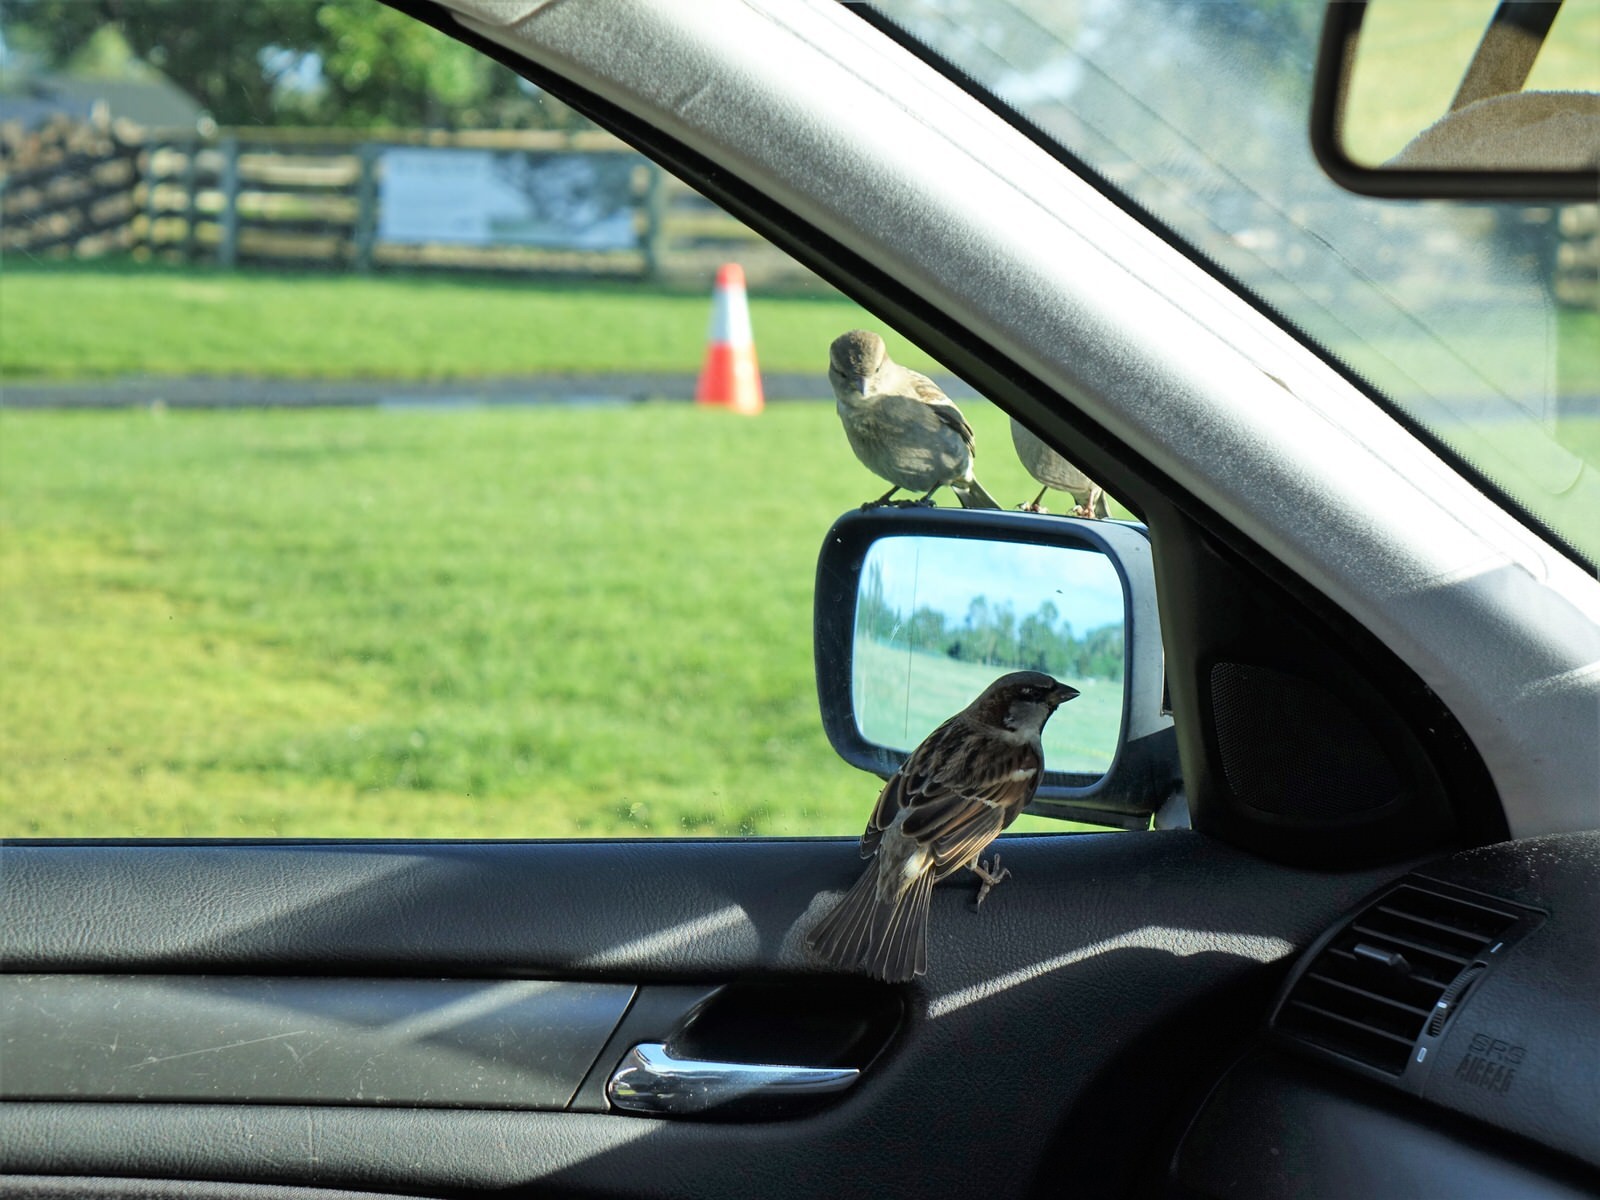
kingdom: Animalia
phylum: Chordata
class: Aves
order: Passeriformes
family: Passeridae
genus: Passer
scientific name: Passer domesticus
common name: House sparrow
